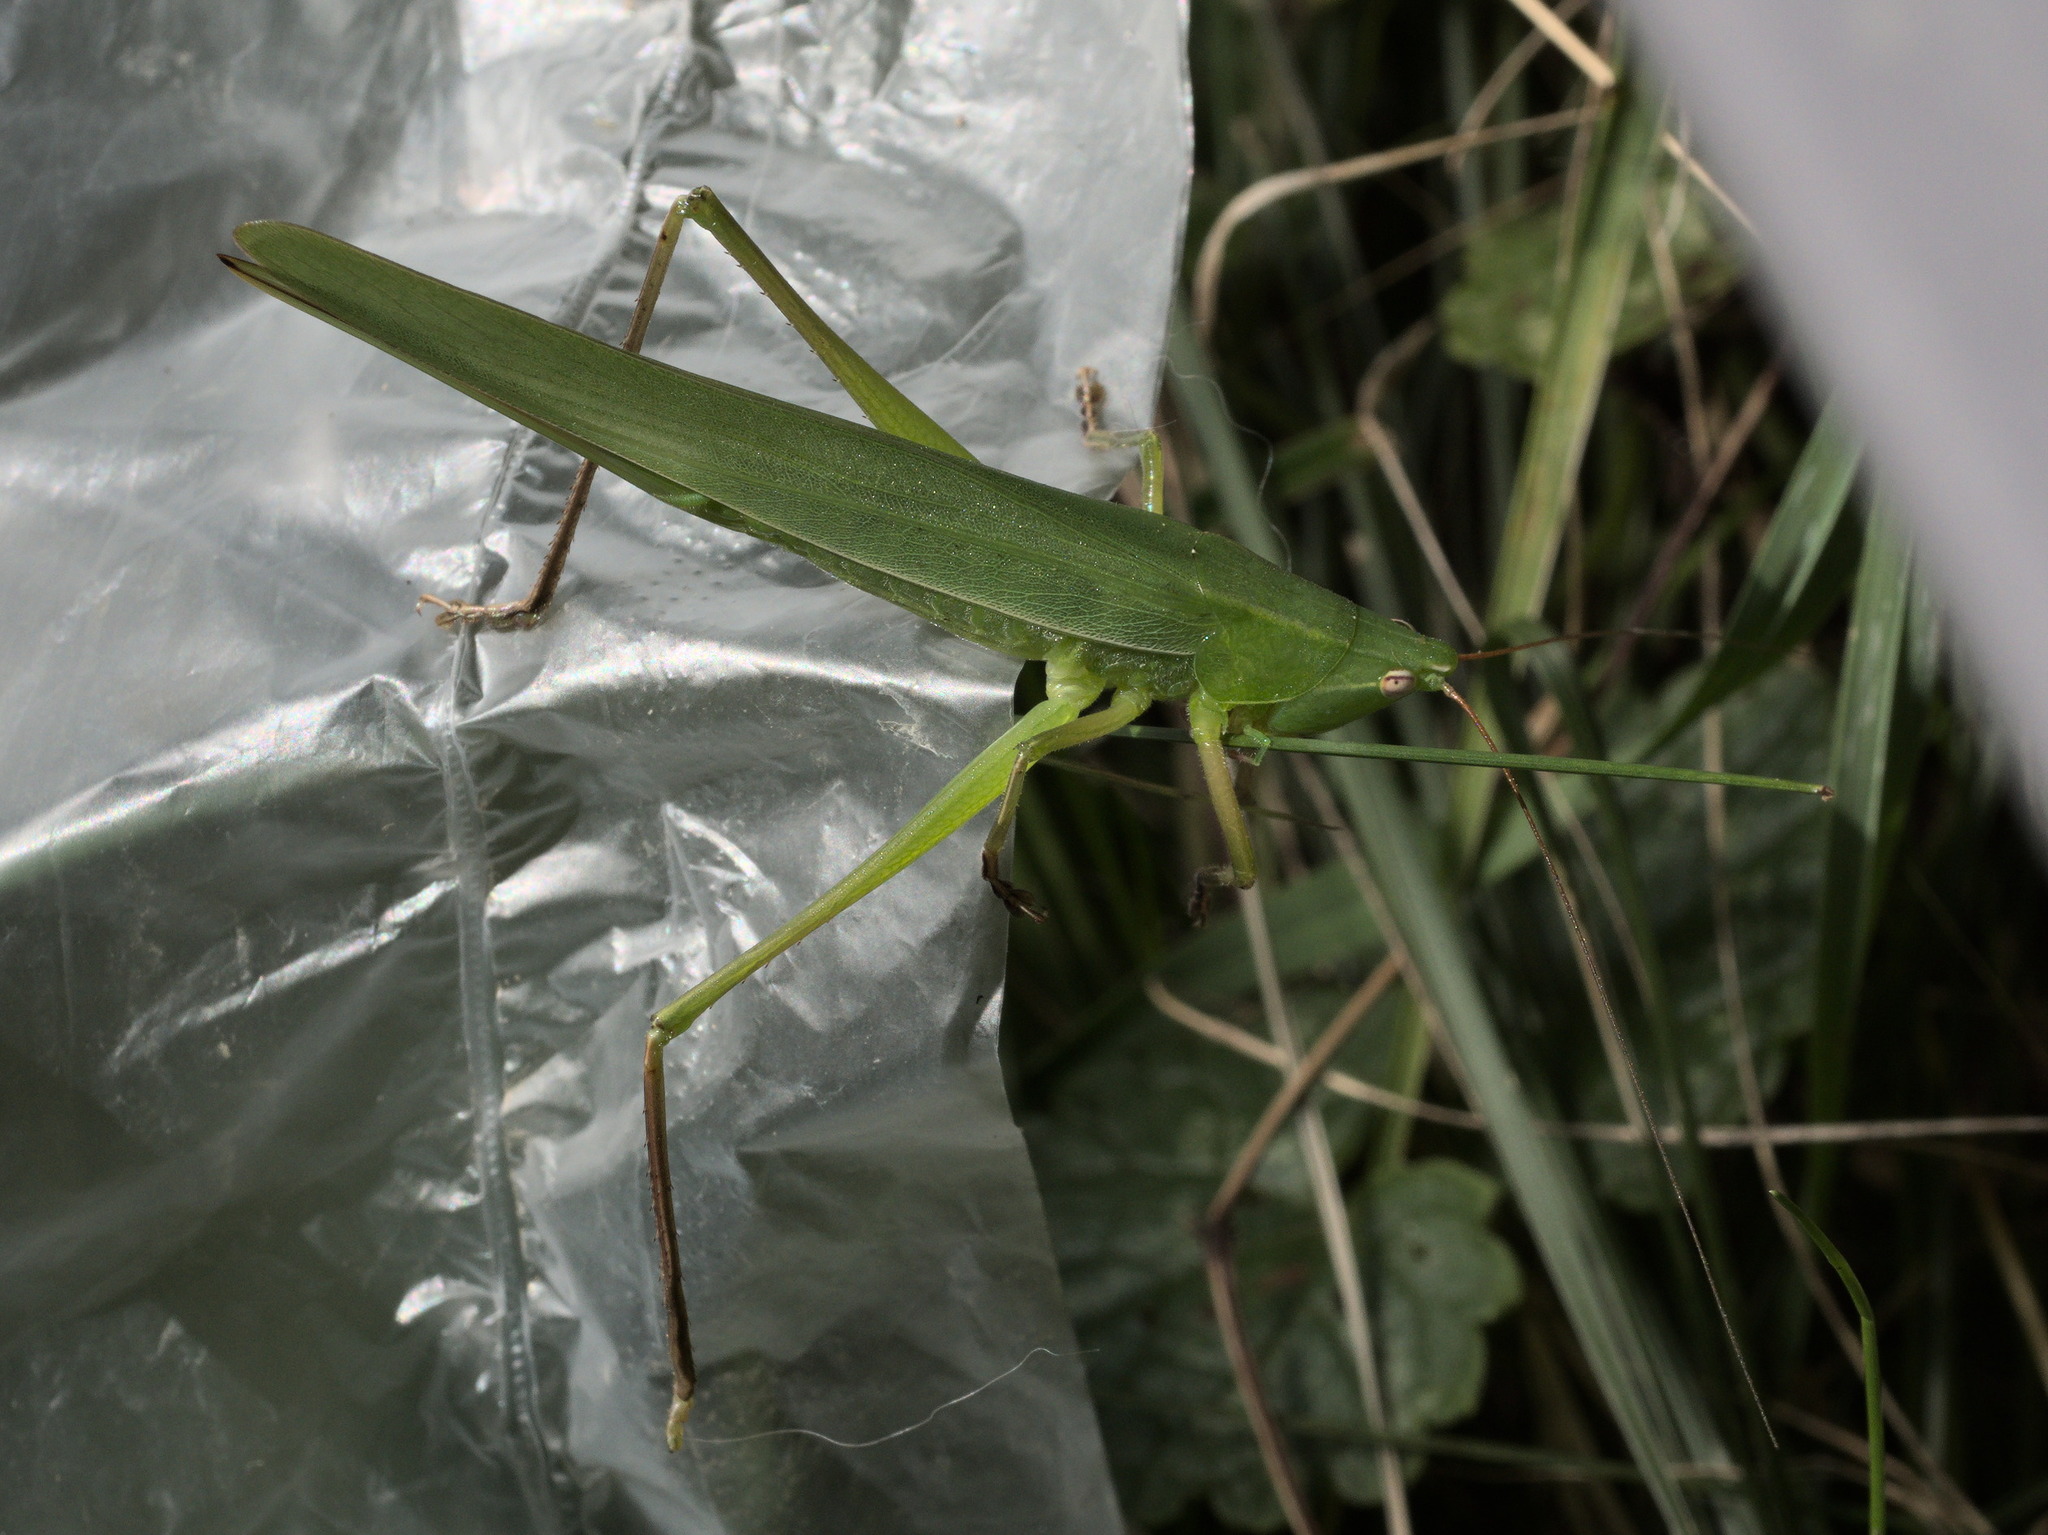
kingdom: Animalia
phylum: Arthropoda
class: Insecta
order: Orthoptera
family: Tettigoniidae
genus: Ruspolia
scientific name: Ruspolia nitidula
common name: Large conehead
